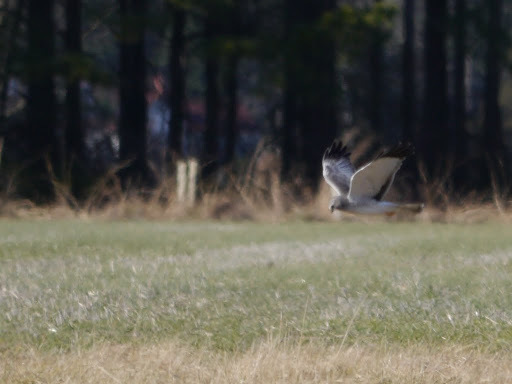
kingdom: Animalia
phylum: Chordata
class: Aves
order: Accipitriformes
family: Accipitridae
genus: Circus
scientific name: Circus cyaneus
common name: Hen harrier
